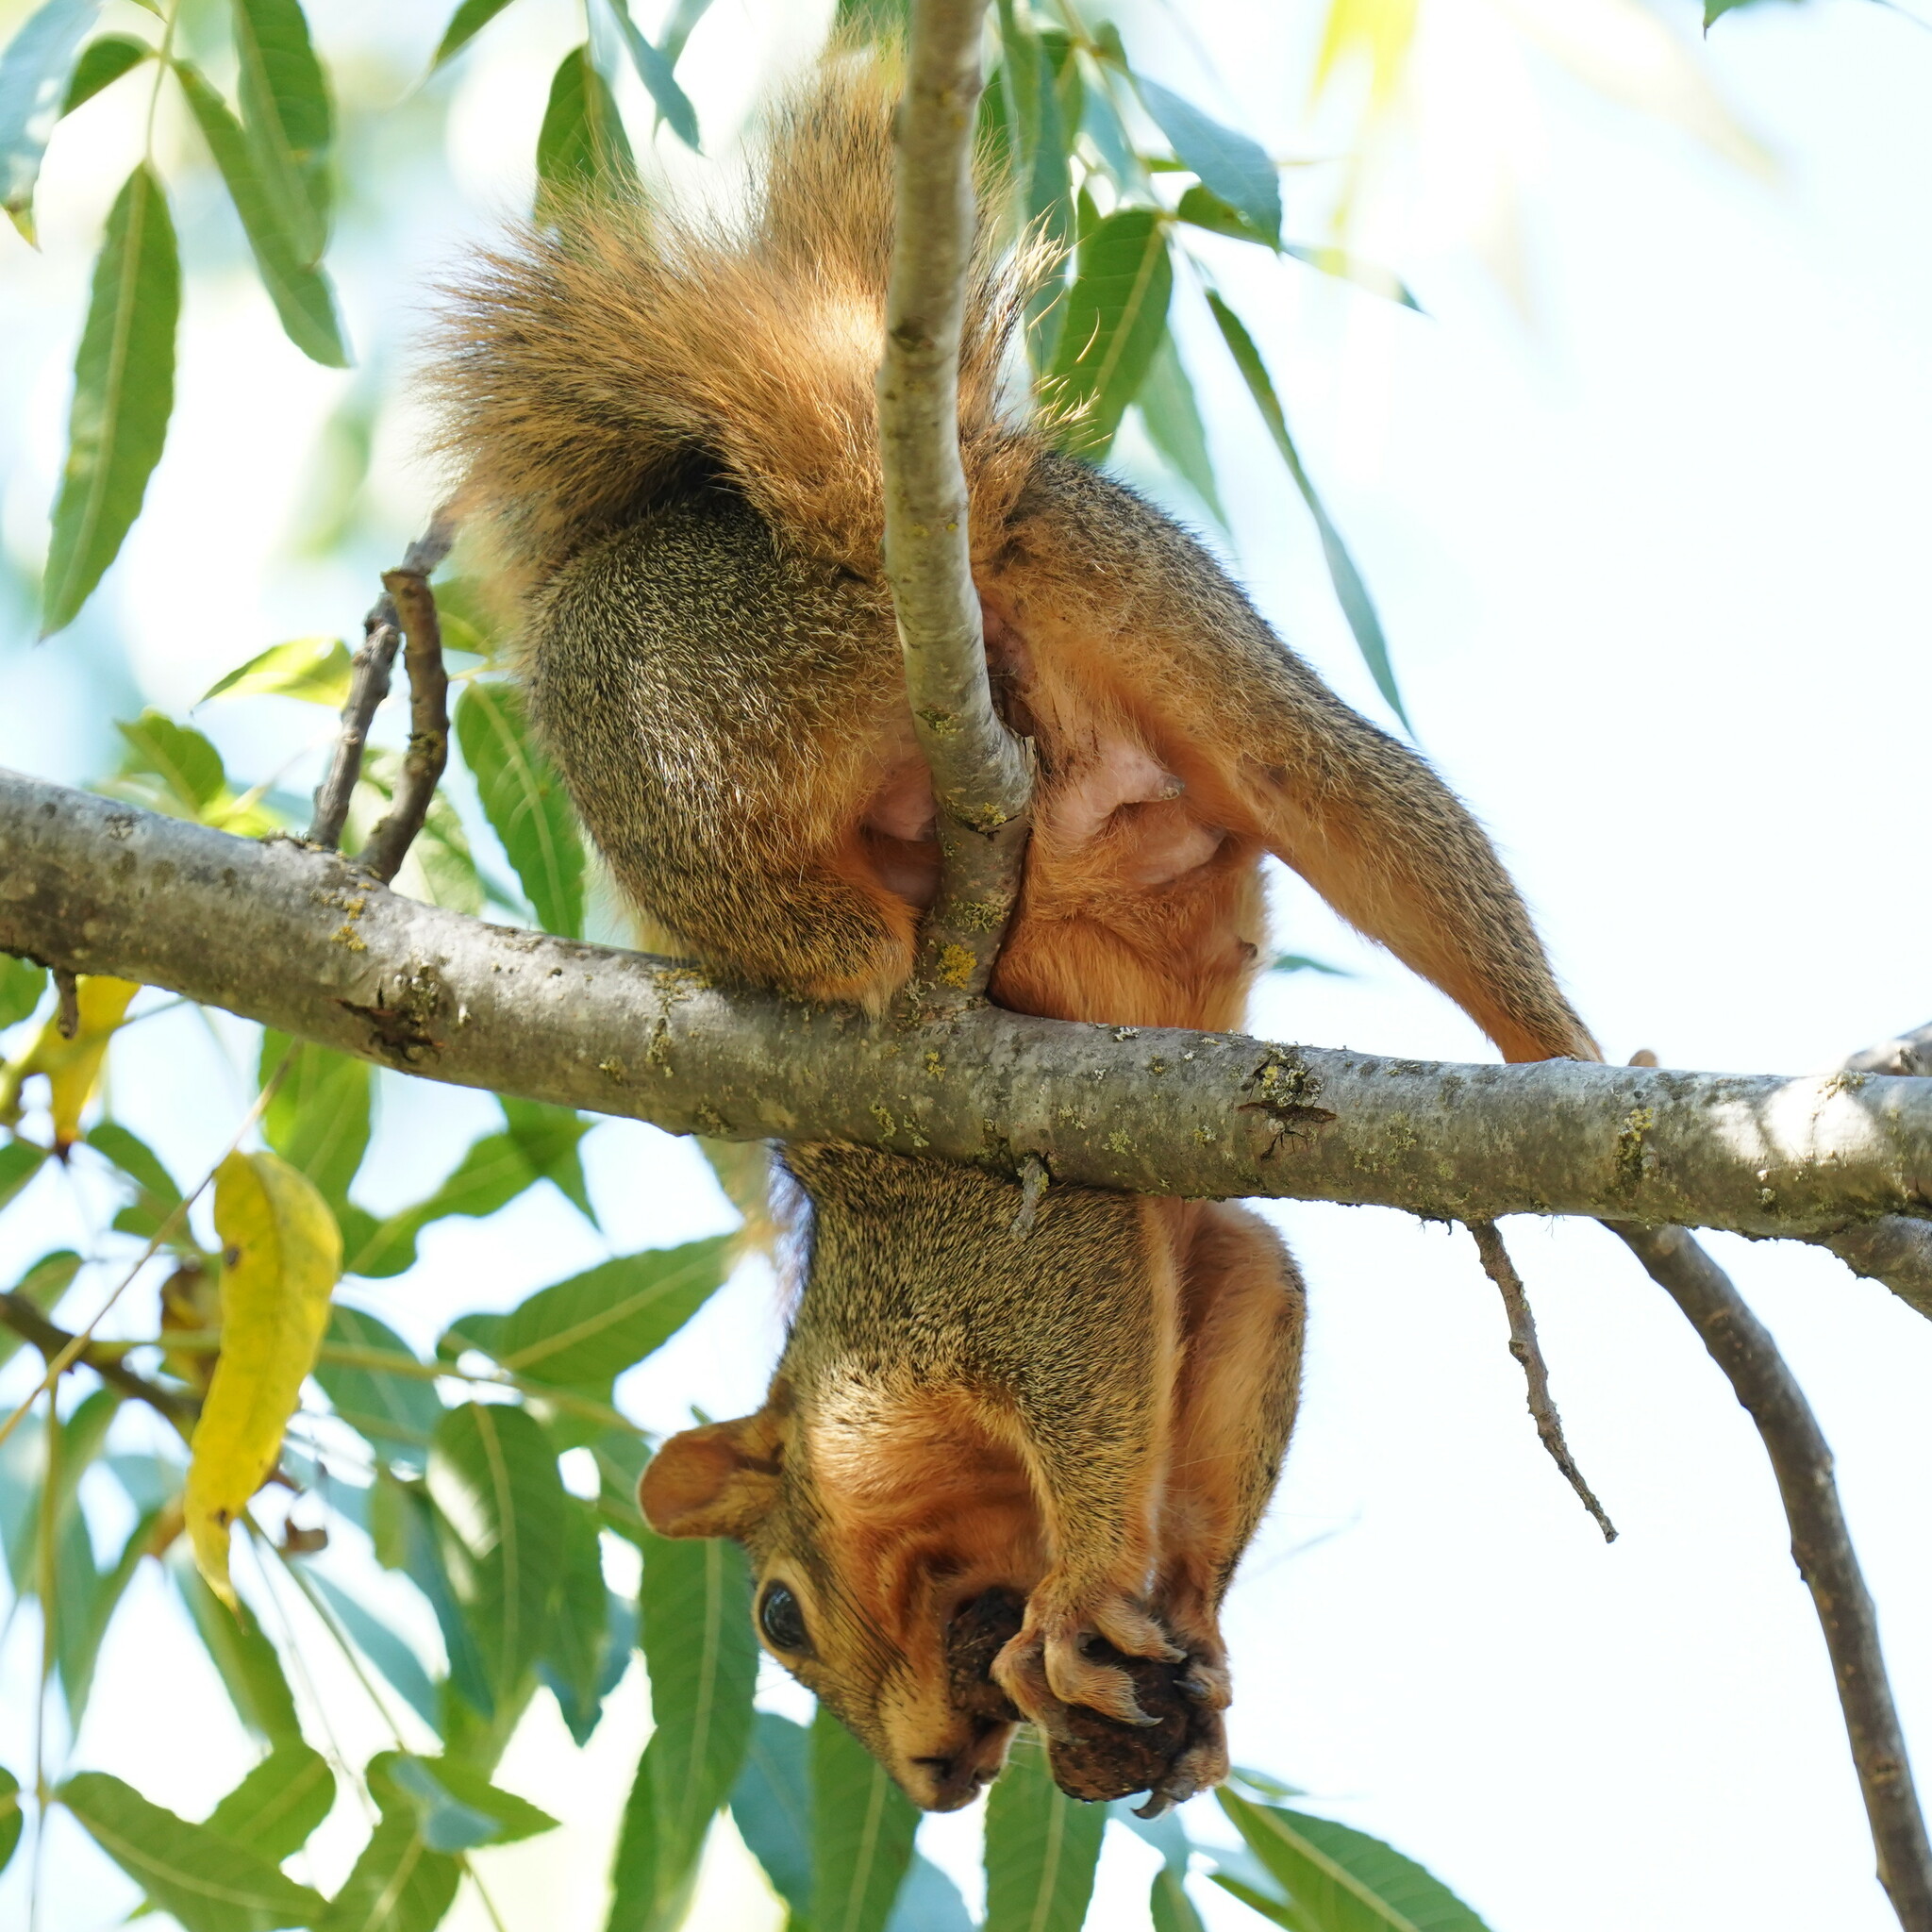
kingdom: Animalia
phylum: Chordata
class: Mammalia
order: Rodentia
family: Sciuridae
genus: Sciurus
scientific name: Sciurus niger
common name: Fox squirrel
